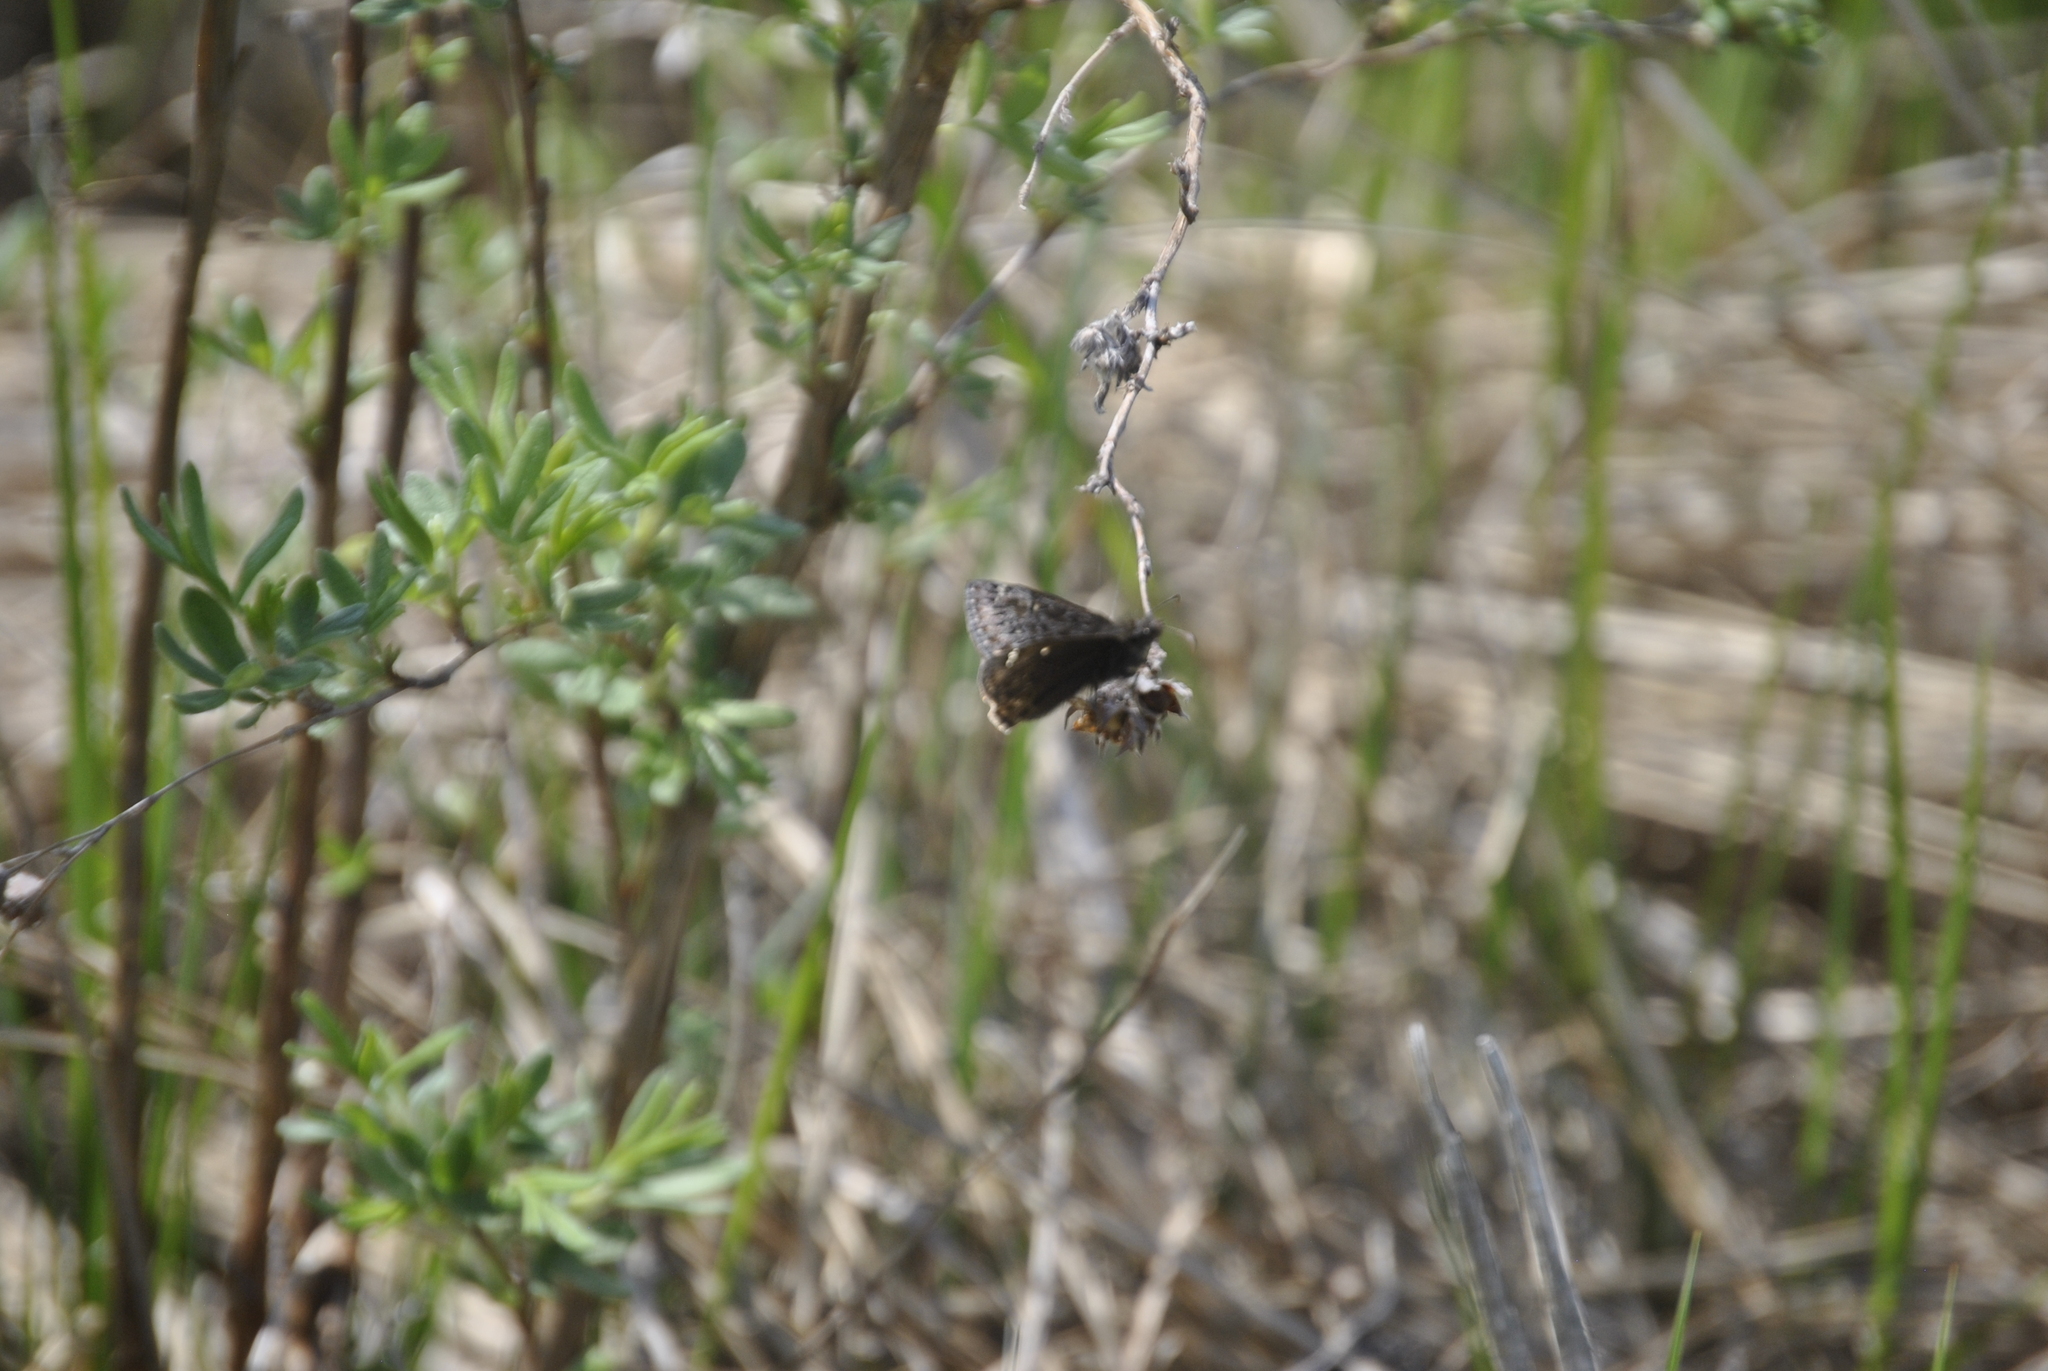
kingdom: Animalia
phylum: Arthropoda
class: Insecta
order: Lepidoptera
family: Hesperiidae
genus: Erynnis
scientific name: Erynnis juvenalis
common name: Juvenal's duskywing
